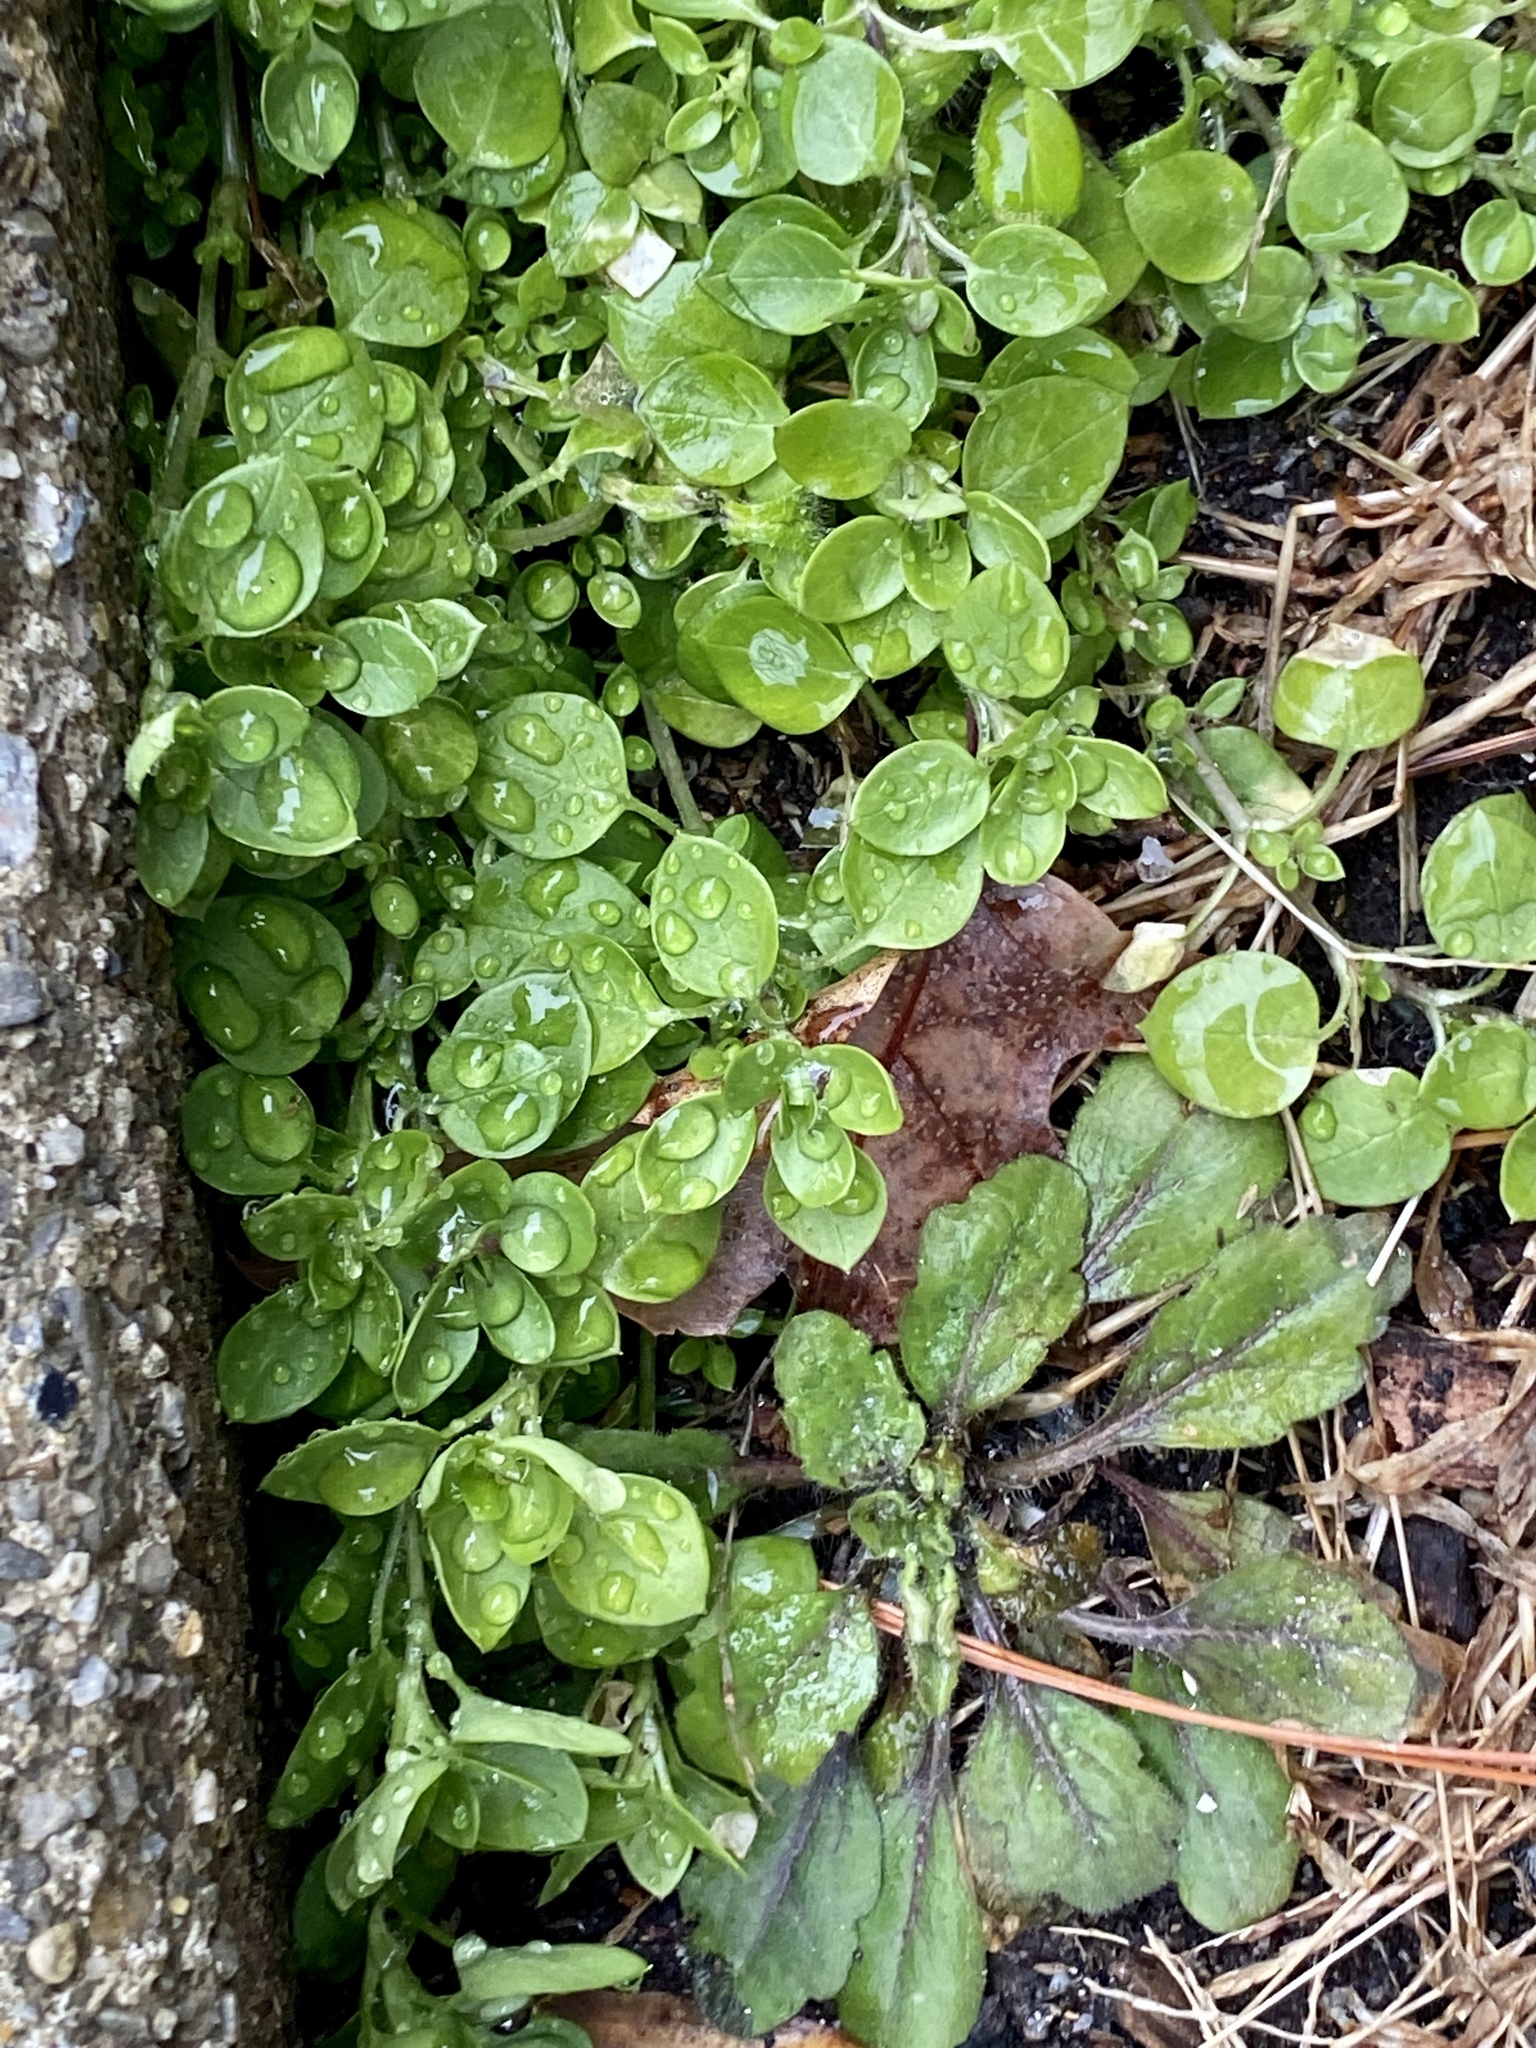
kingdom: Plantae
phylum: Tracheophyta
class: Magnoliopsida
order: Caryophyllales
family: Caryophyllaceae
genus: Stellaria
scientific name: Stellaria media
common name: Common chickweed
